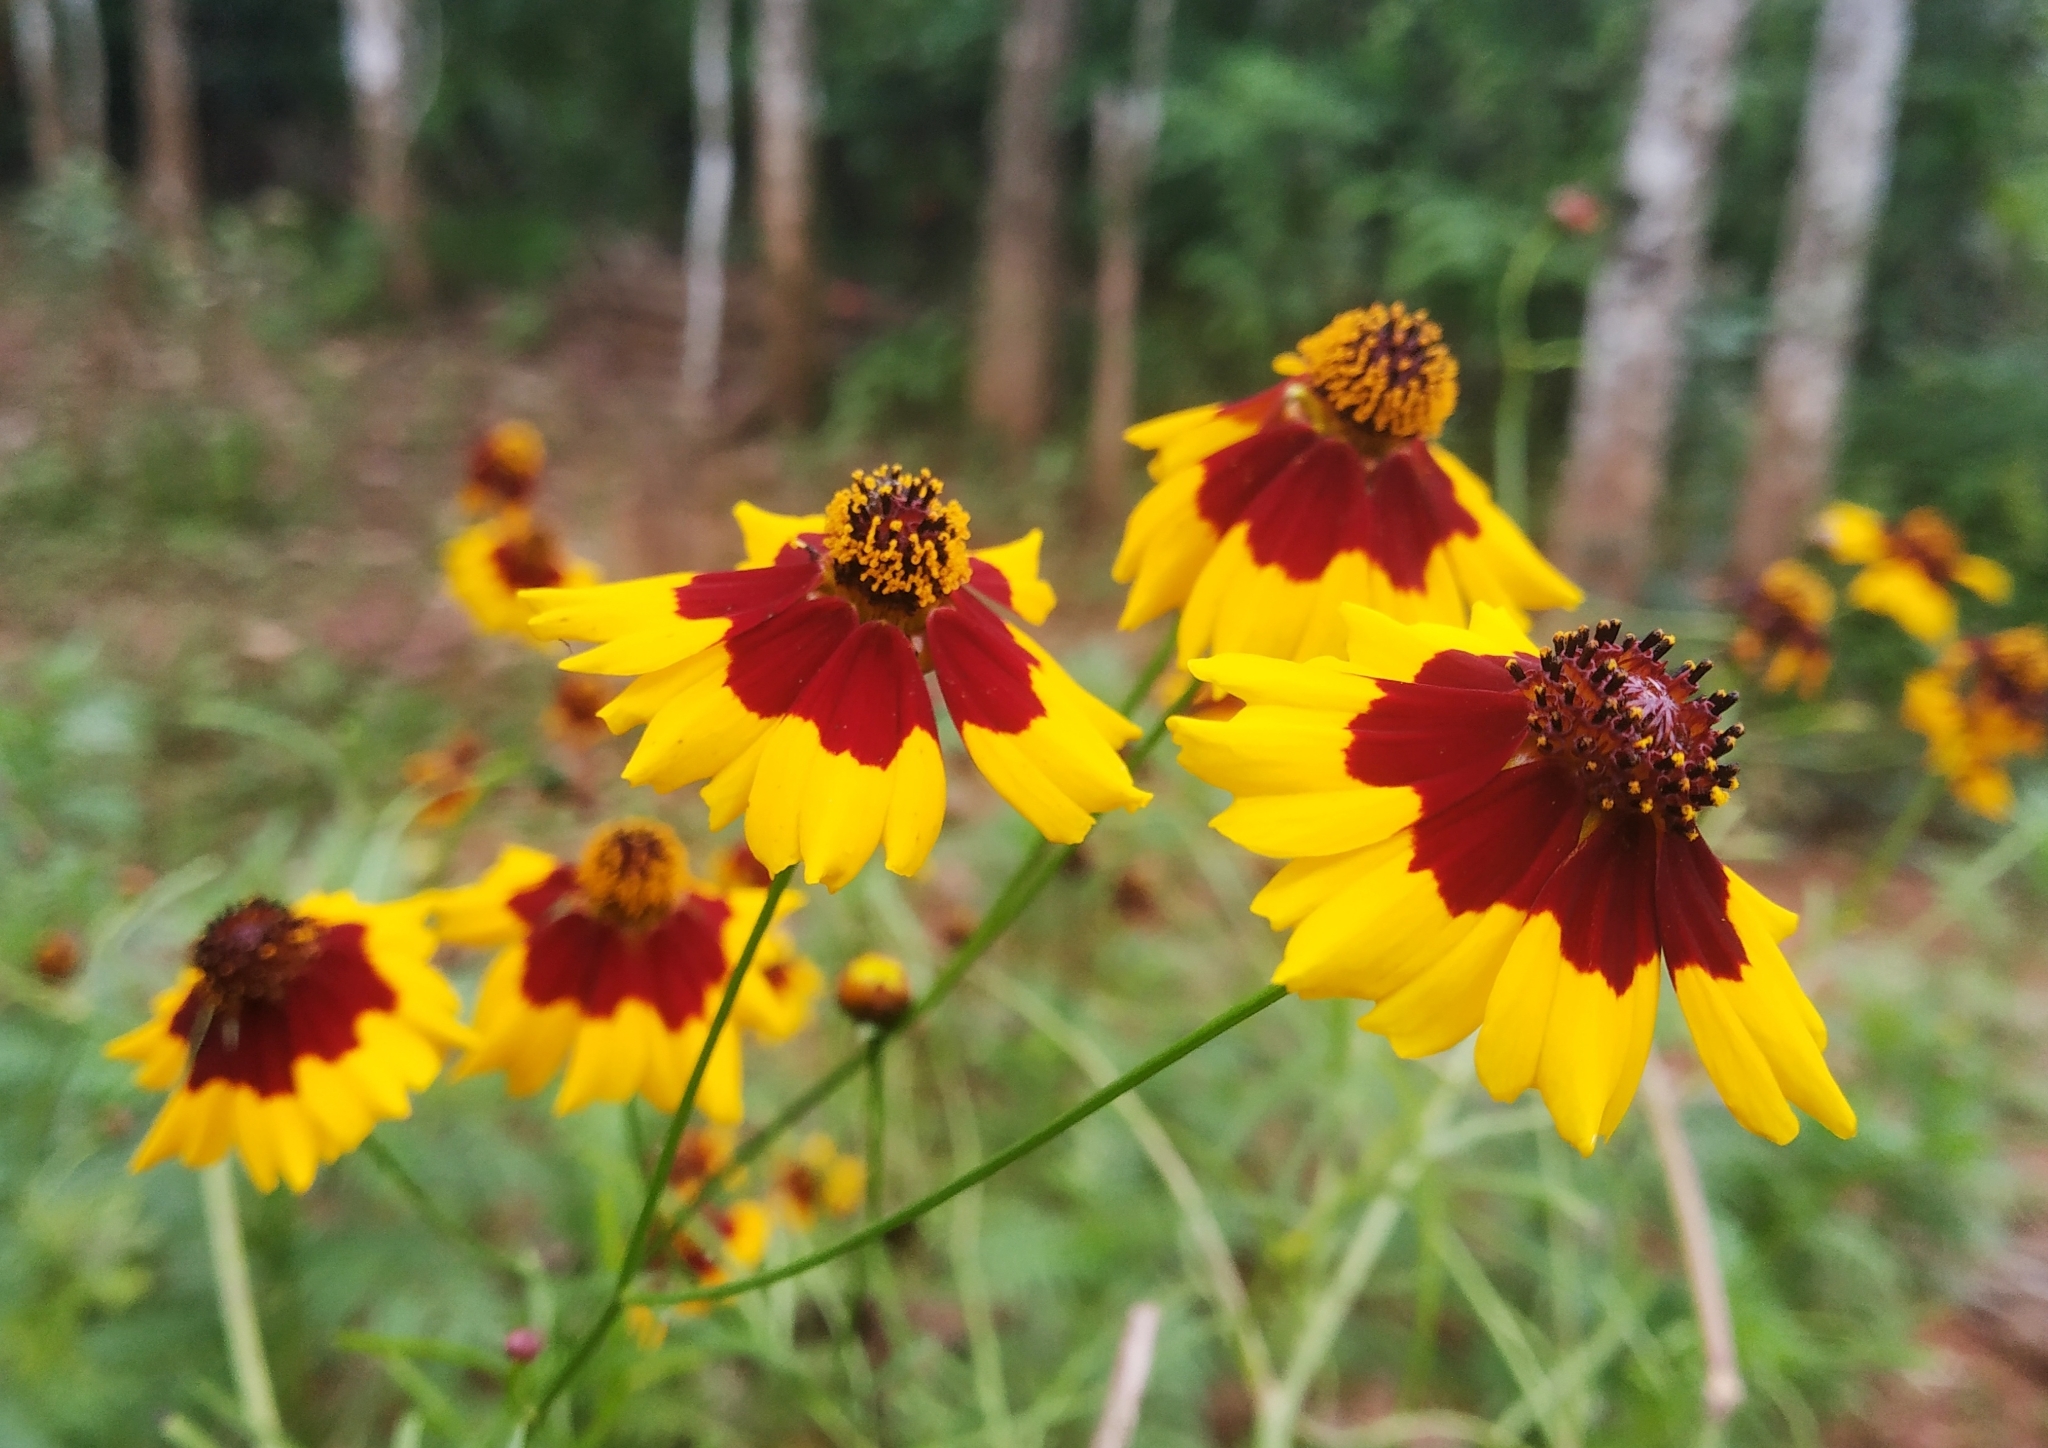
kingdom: Plantae
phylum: Tracheophyta
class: Magnoliopsida
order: Asterales
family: Asteraceae
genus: Coreopsis
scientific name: Coreopsis tinctoria
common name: Garden tickseed
